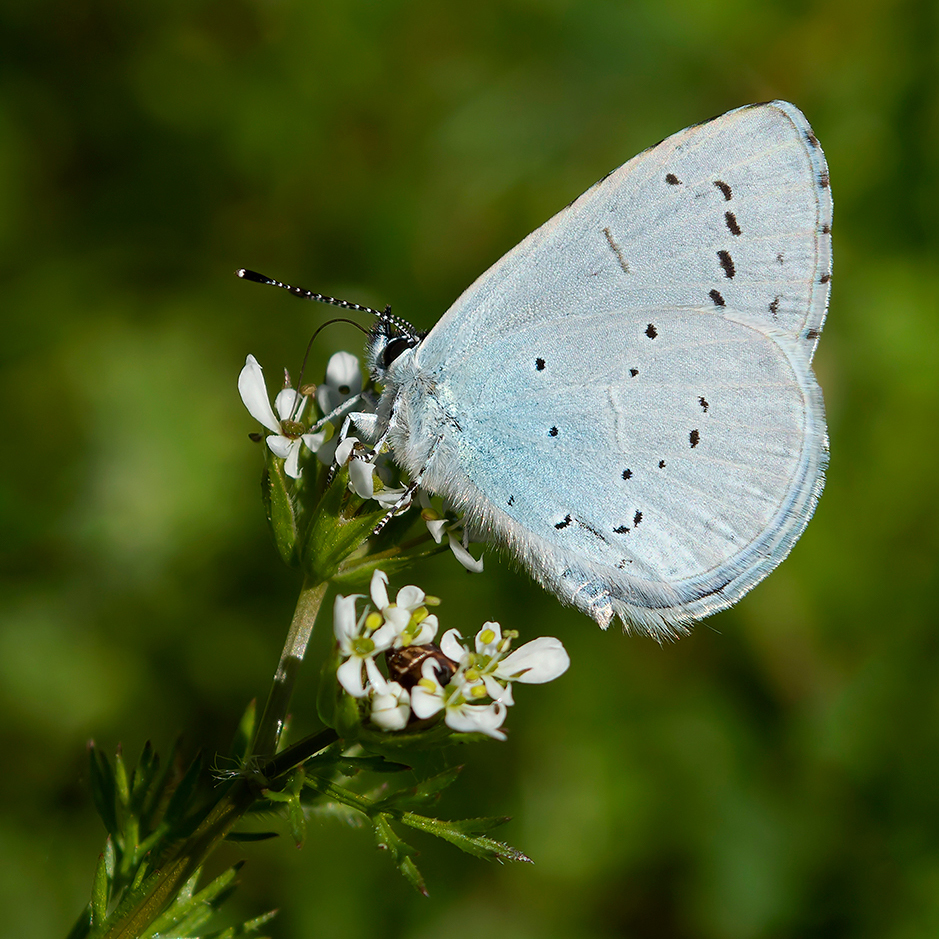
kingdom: Animalia
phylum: Arthropoda
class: Insecta
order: Lepidoptera
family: Lycaenidae
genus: Celastrina
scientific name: Celastrina argiolus
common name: Holly blue
